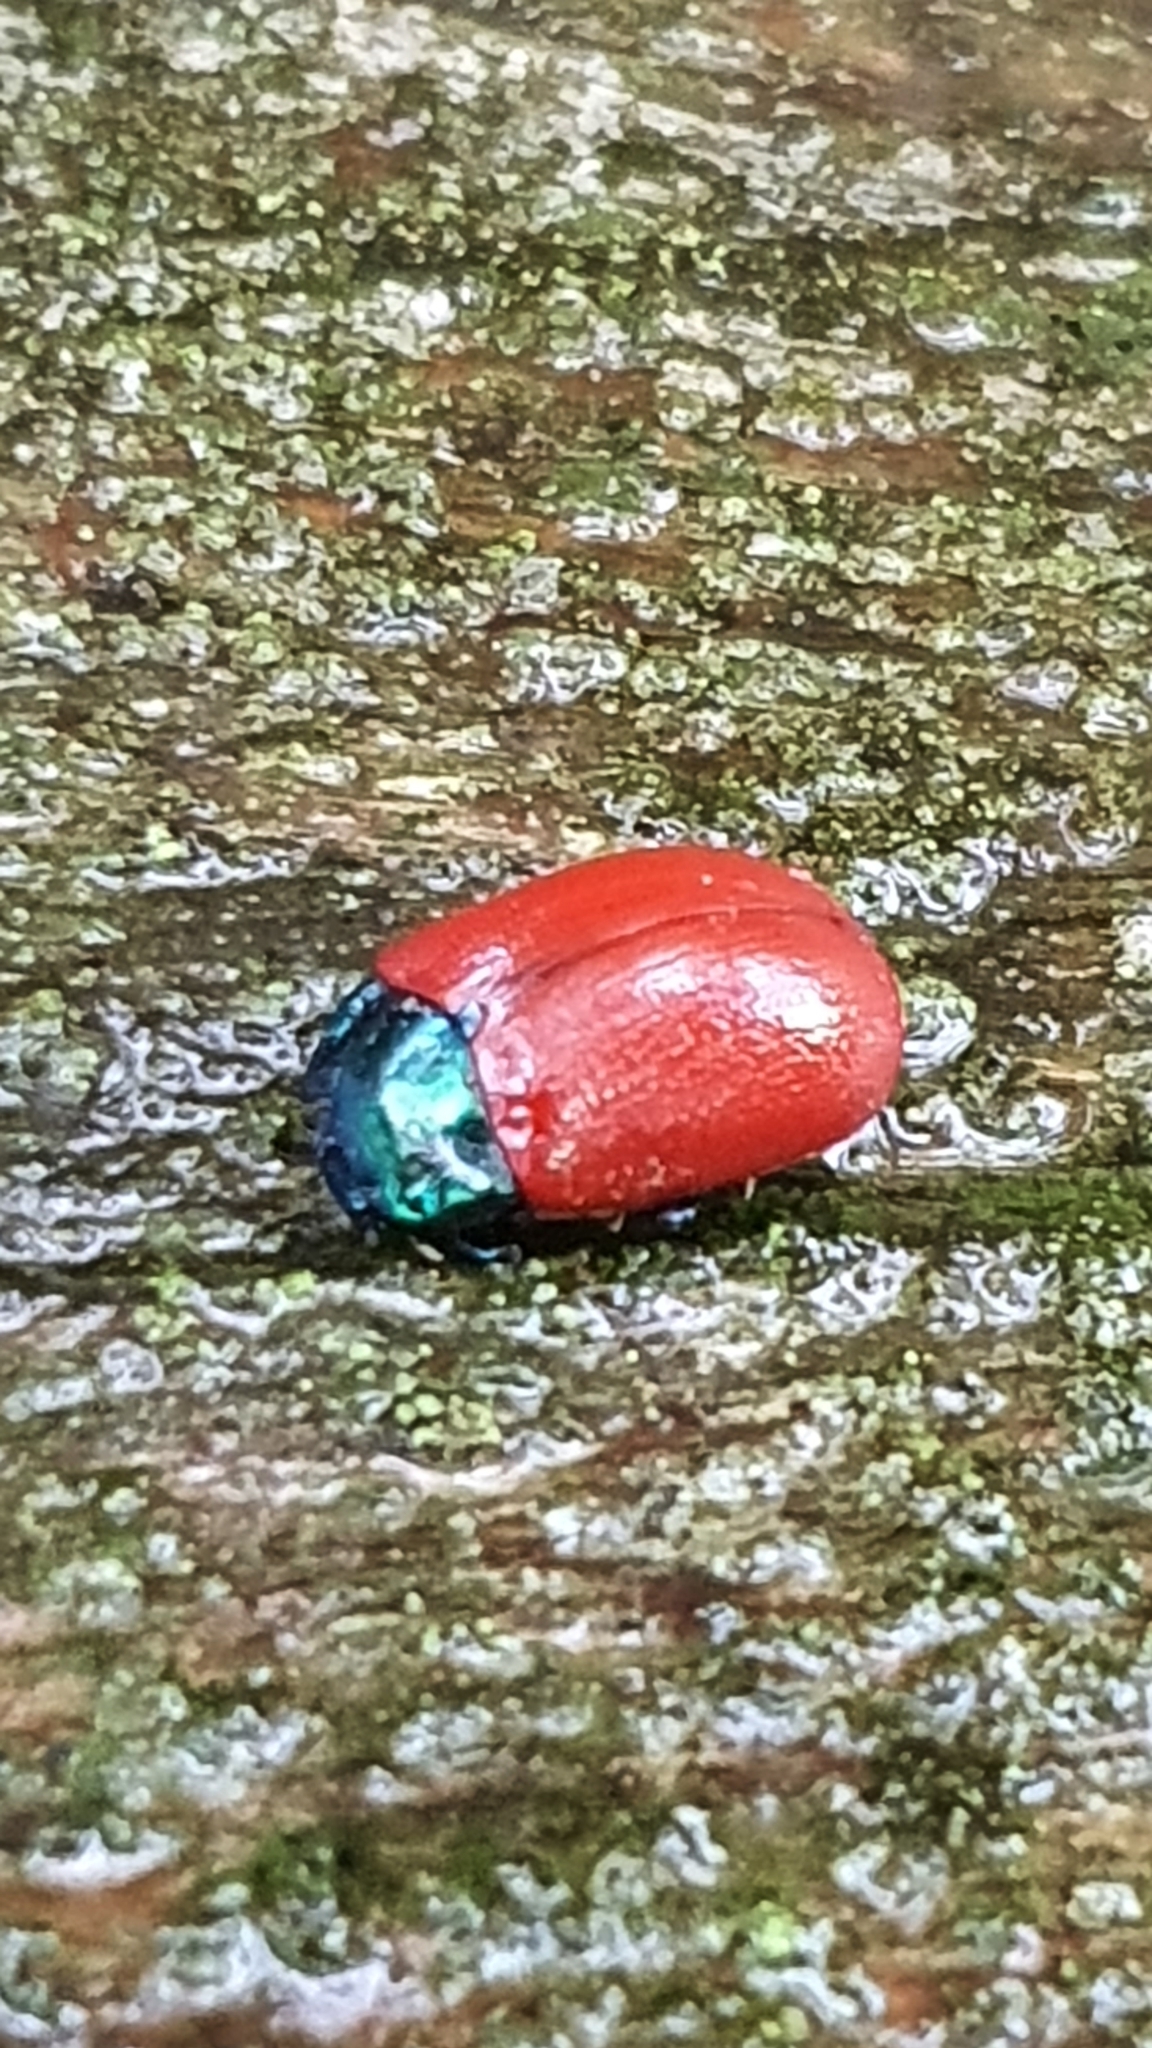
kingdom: Animalia
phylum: Arthropoda
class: Insecta
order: Coleoptera
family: Chrysomelidae
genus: Chrysolina
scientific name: Chrysolina grossa
